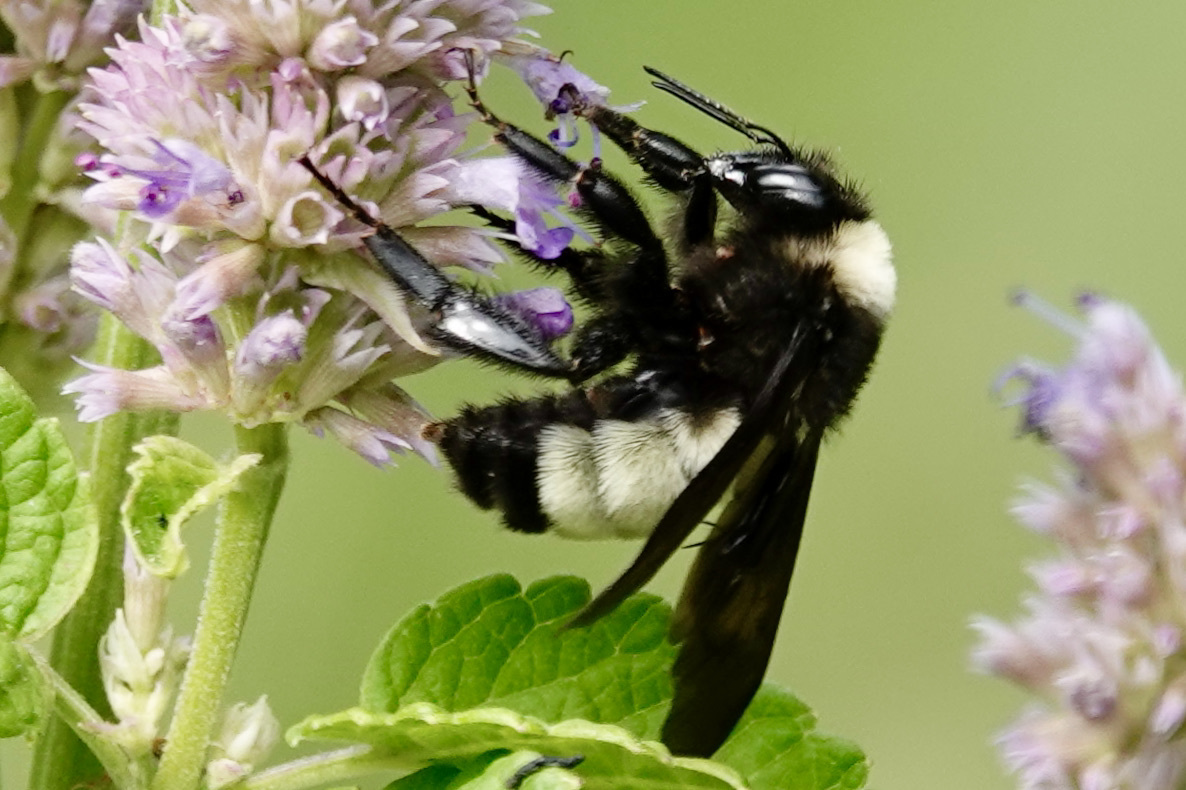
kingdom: Animalia
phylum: Arthropoda
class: Insecta
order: Hymenoptera
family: Apidae
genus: Bombus
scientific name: Bombus pensylvanicus
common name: Bumble bee
